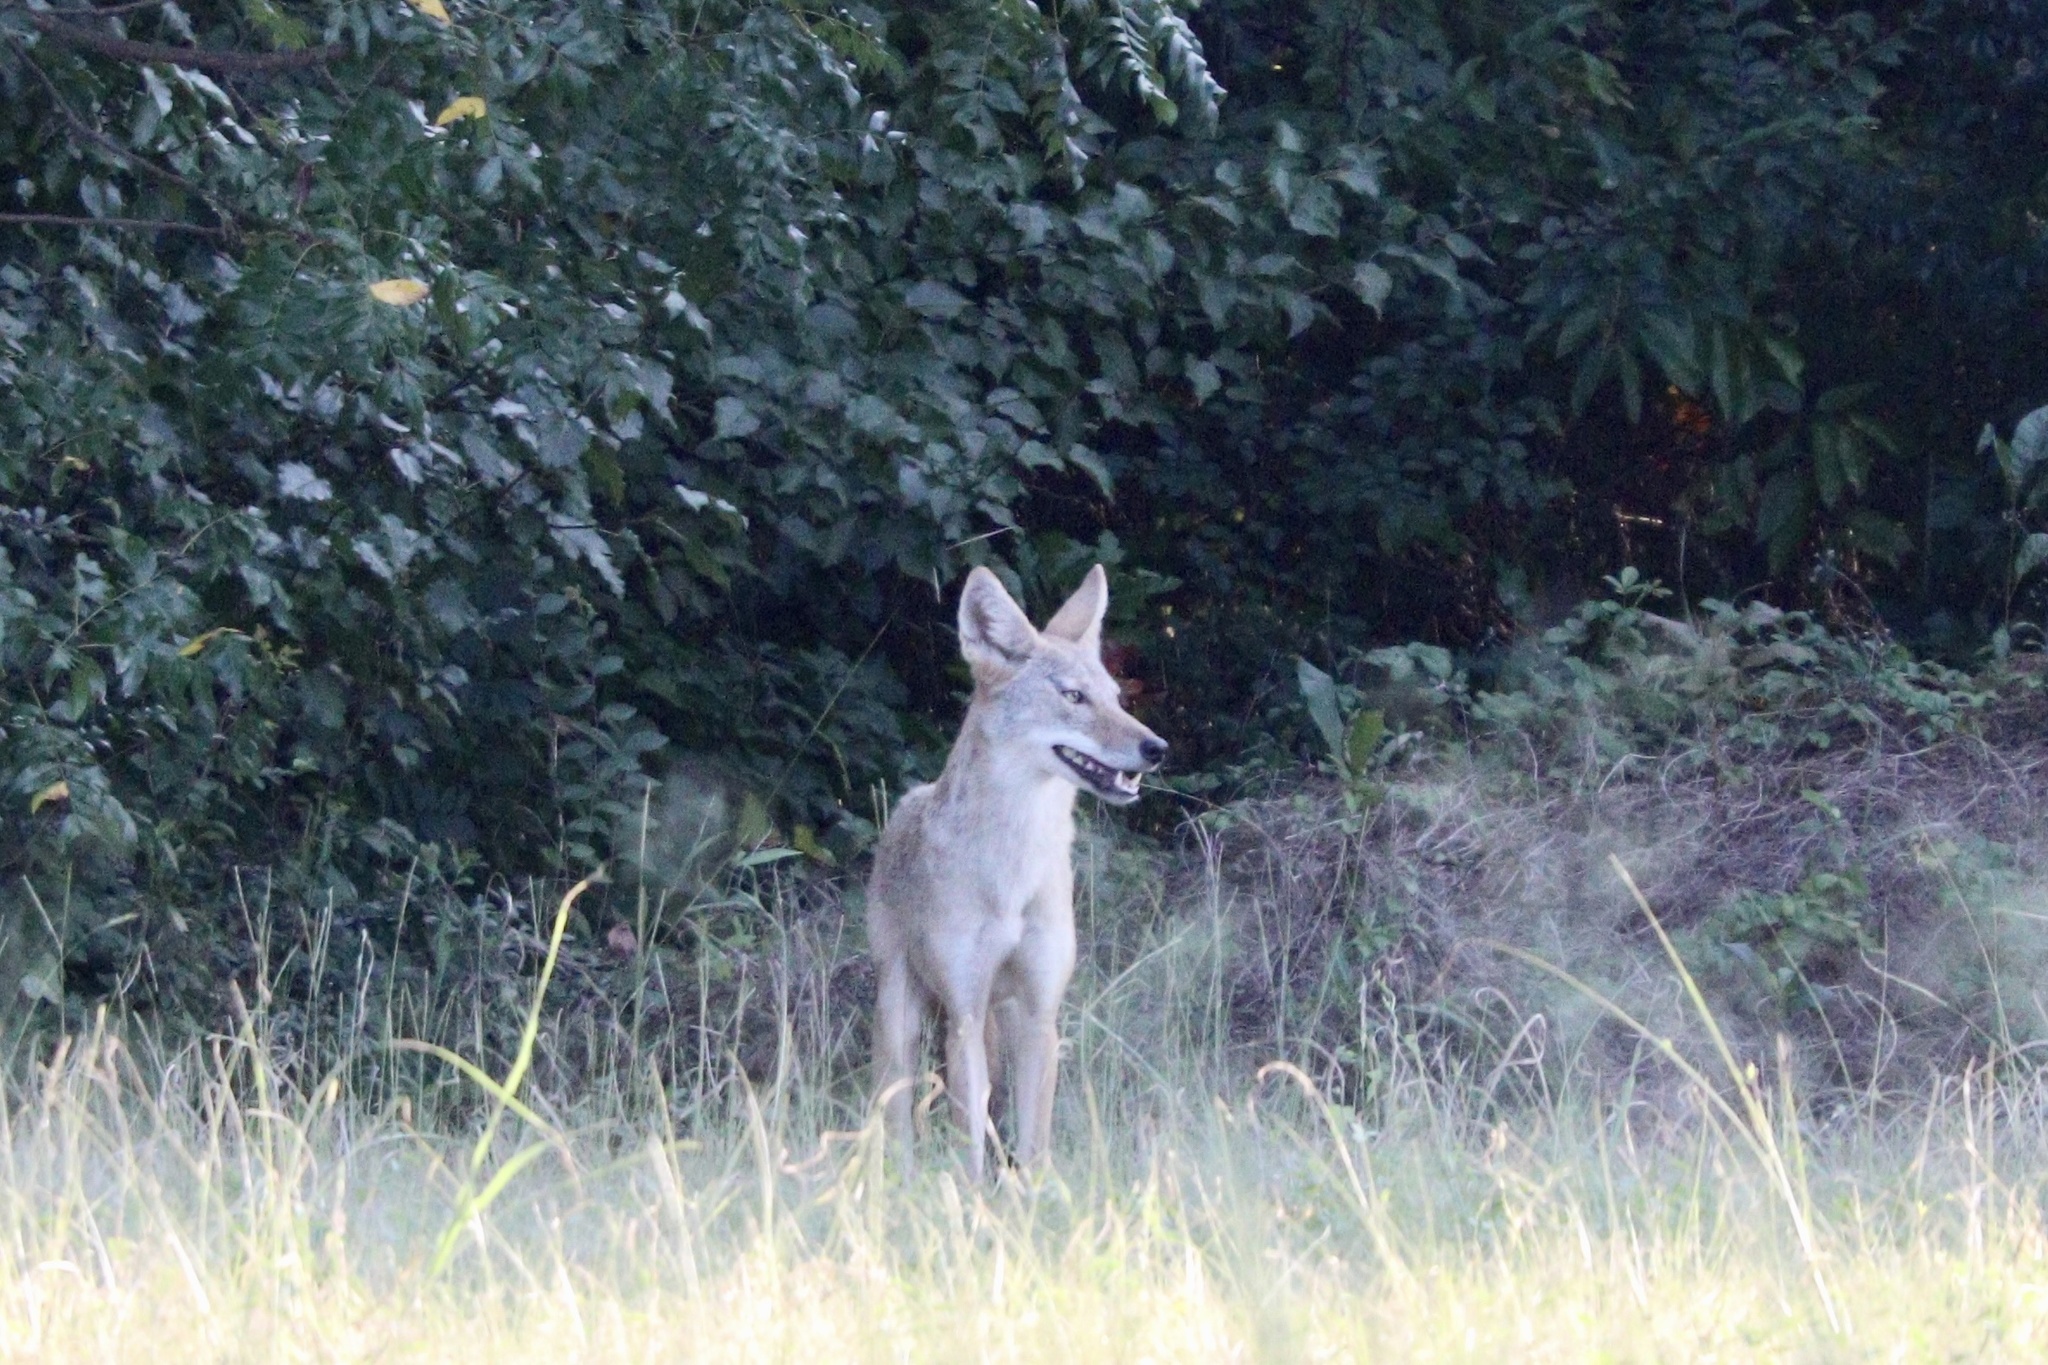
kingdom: Animalia
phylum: Chordata
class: Mammalia
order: Carnivora
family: Canidae
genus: Canis
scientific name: Canis latrans
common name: Coyote
